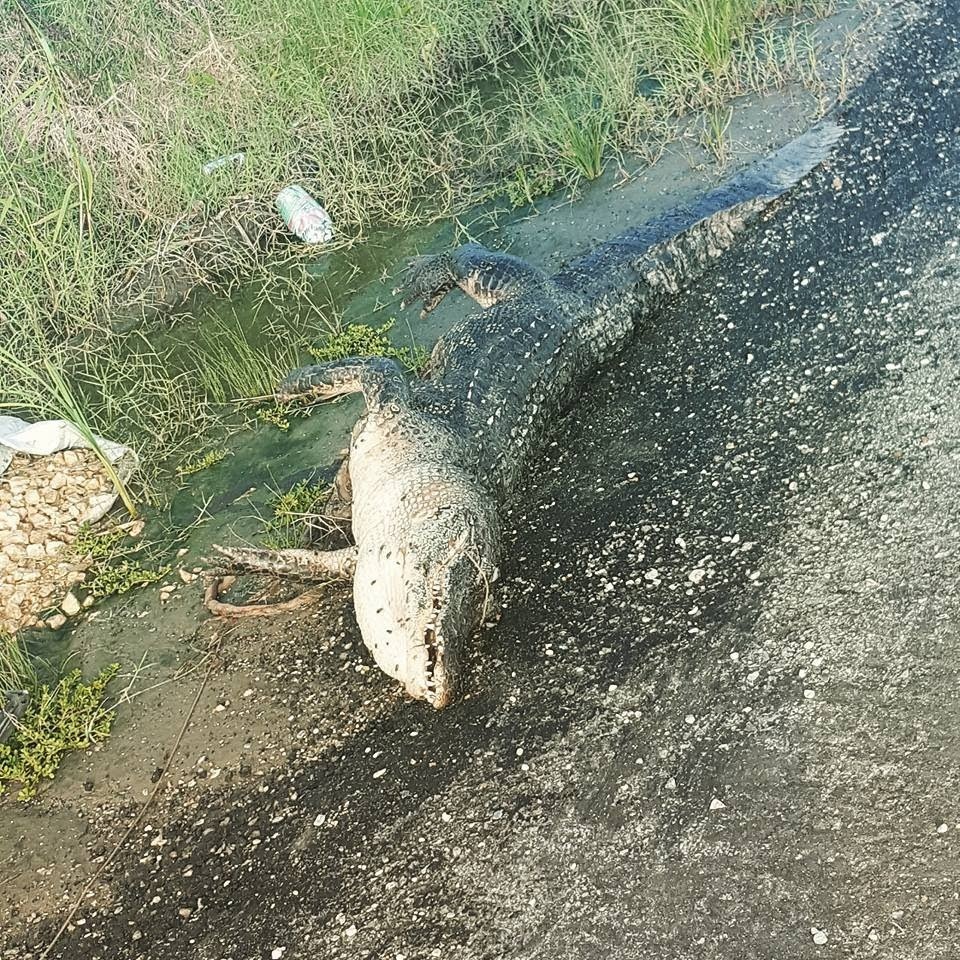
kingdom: Animalia
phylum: Chordata
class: Crocodylia
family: Alligatoridae
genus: Alligator
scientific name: Alligator mississippiensis
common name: American alligator
